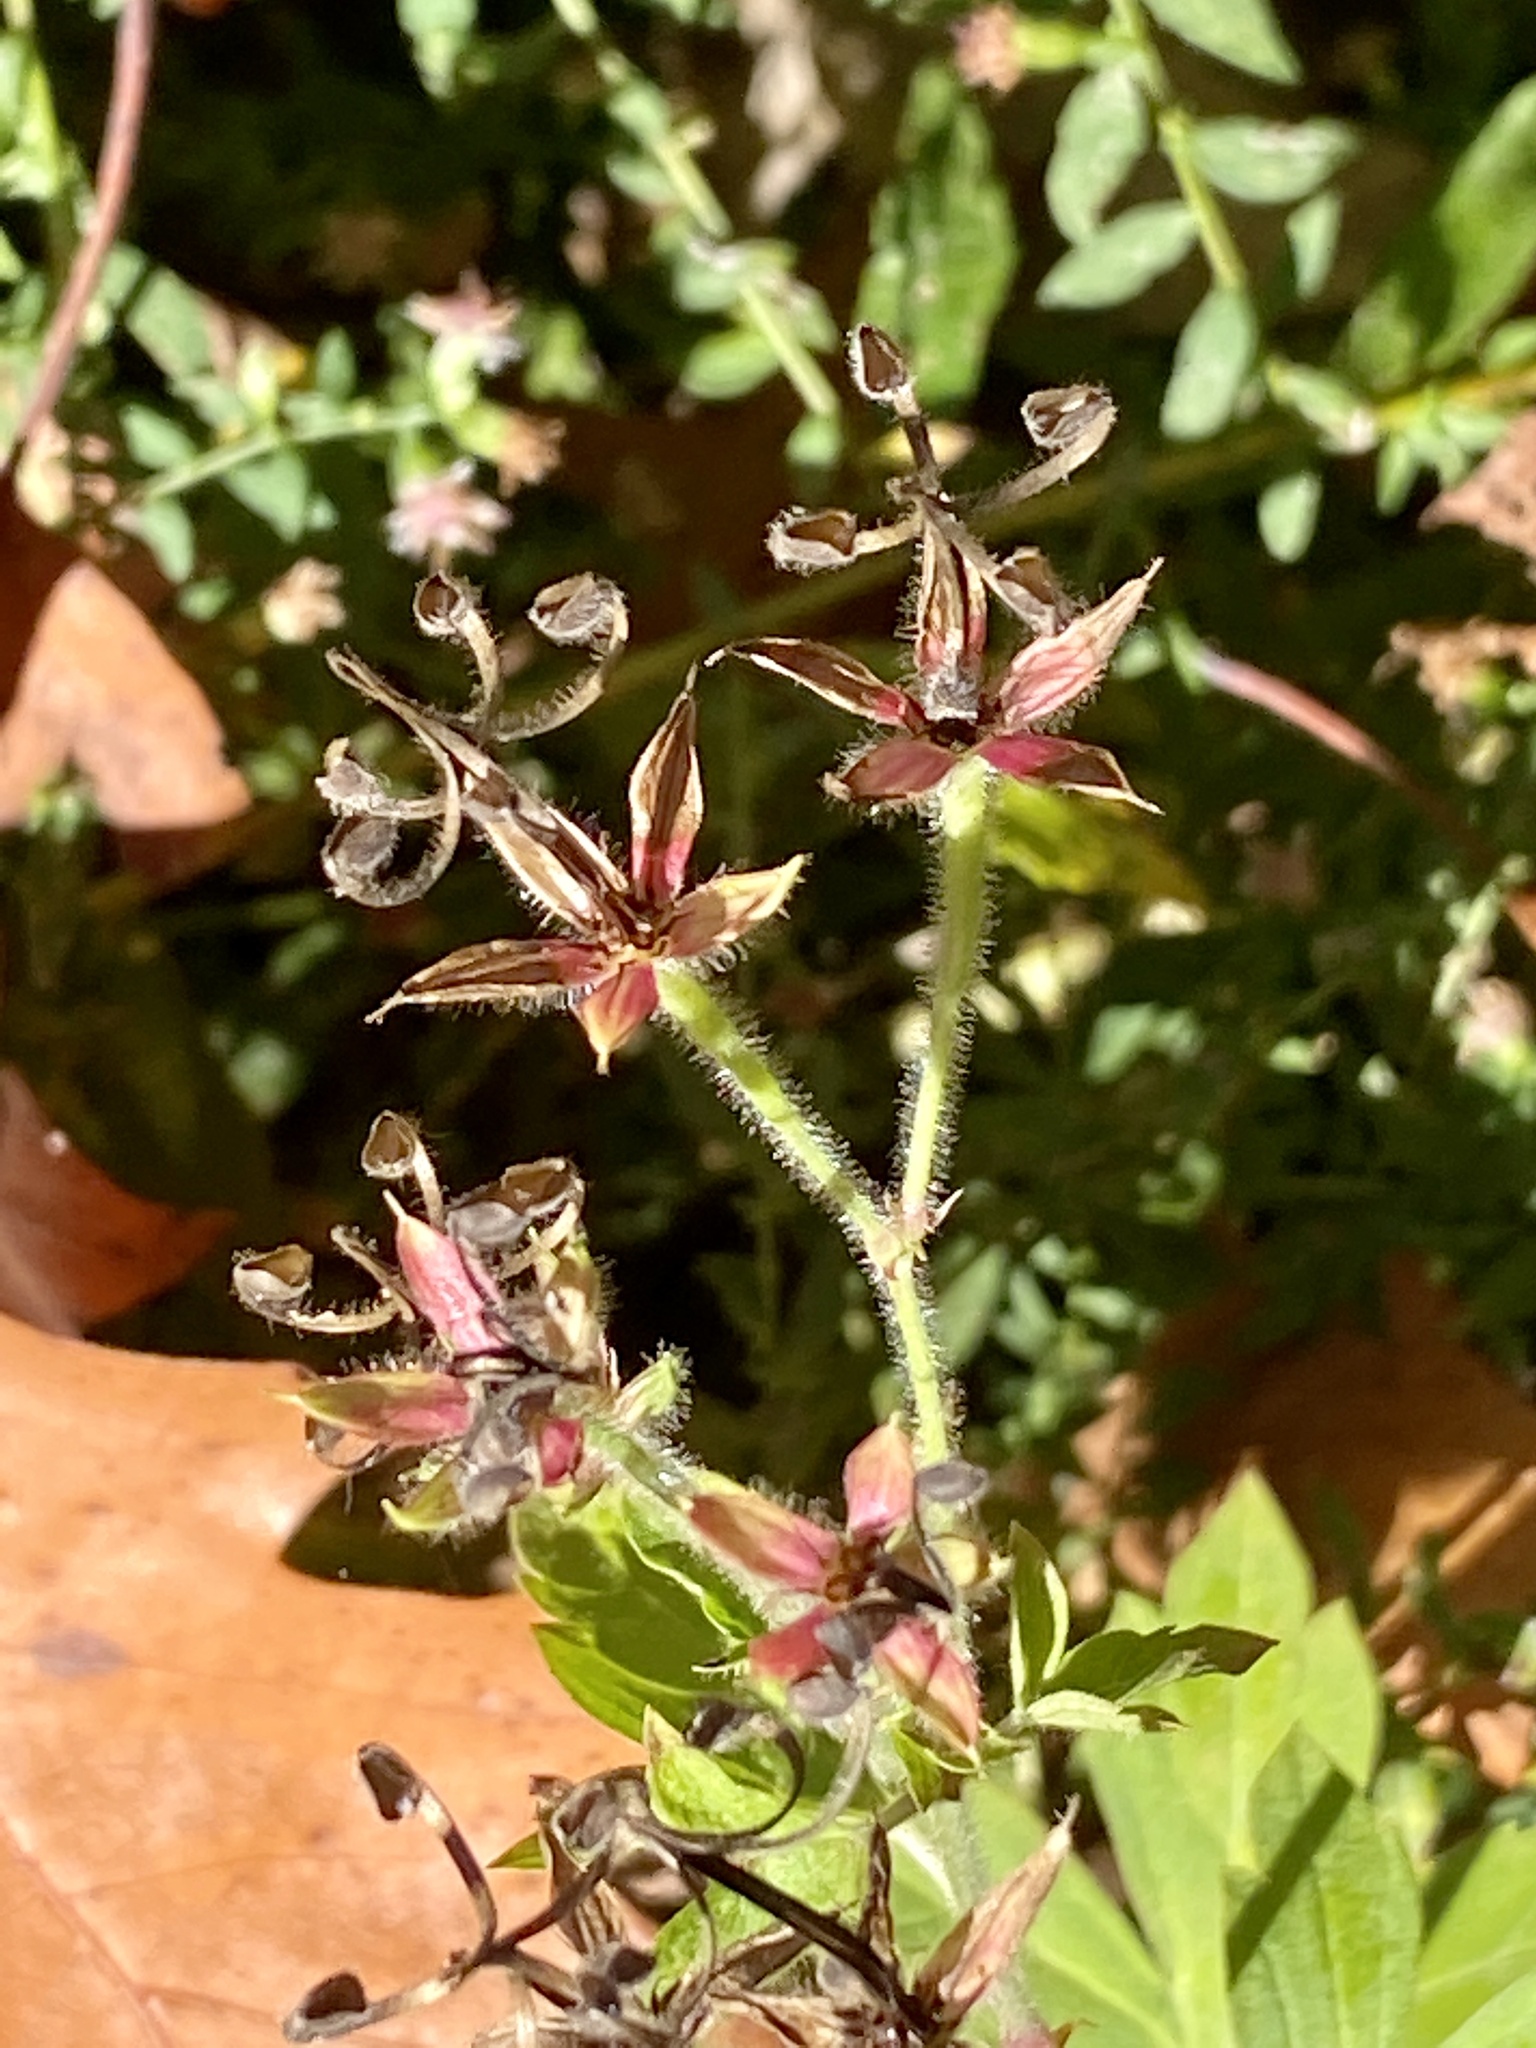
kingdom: Plantae
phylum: Tracheophyta
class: Magnoliopsida
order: Geraniales
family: Geraniaceae
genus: Geranium
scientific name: Geranium thunbergii
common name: Dewdrop crane's-bill
